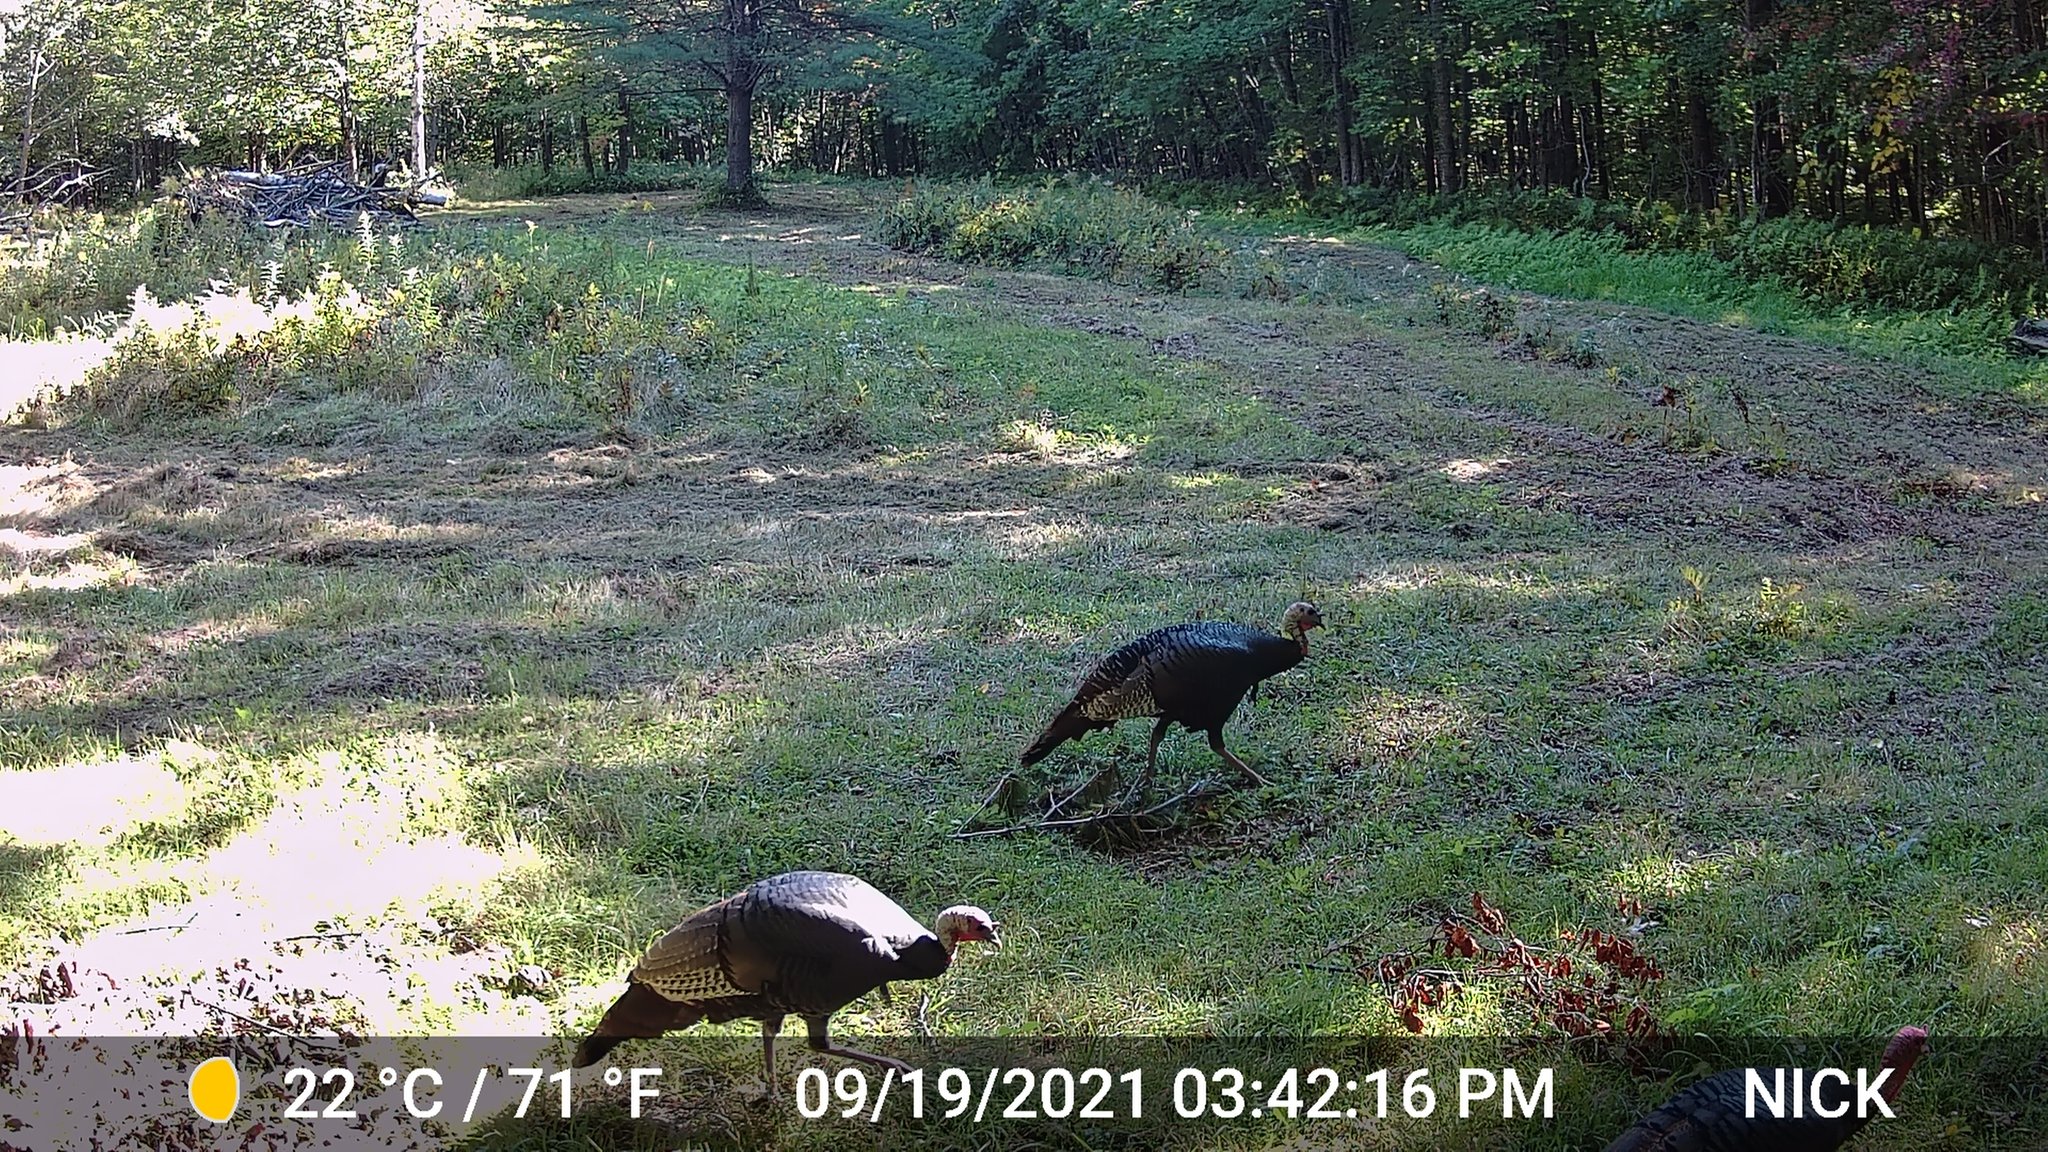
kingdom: Animalia
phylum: Chordata
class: Aves
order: Galliformes
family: Phasianidae
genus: Meleagris
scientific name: Meleagris gallopavo
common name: Wild turkey
